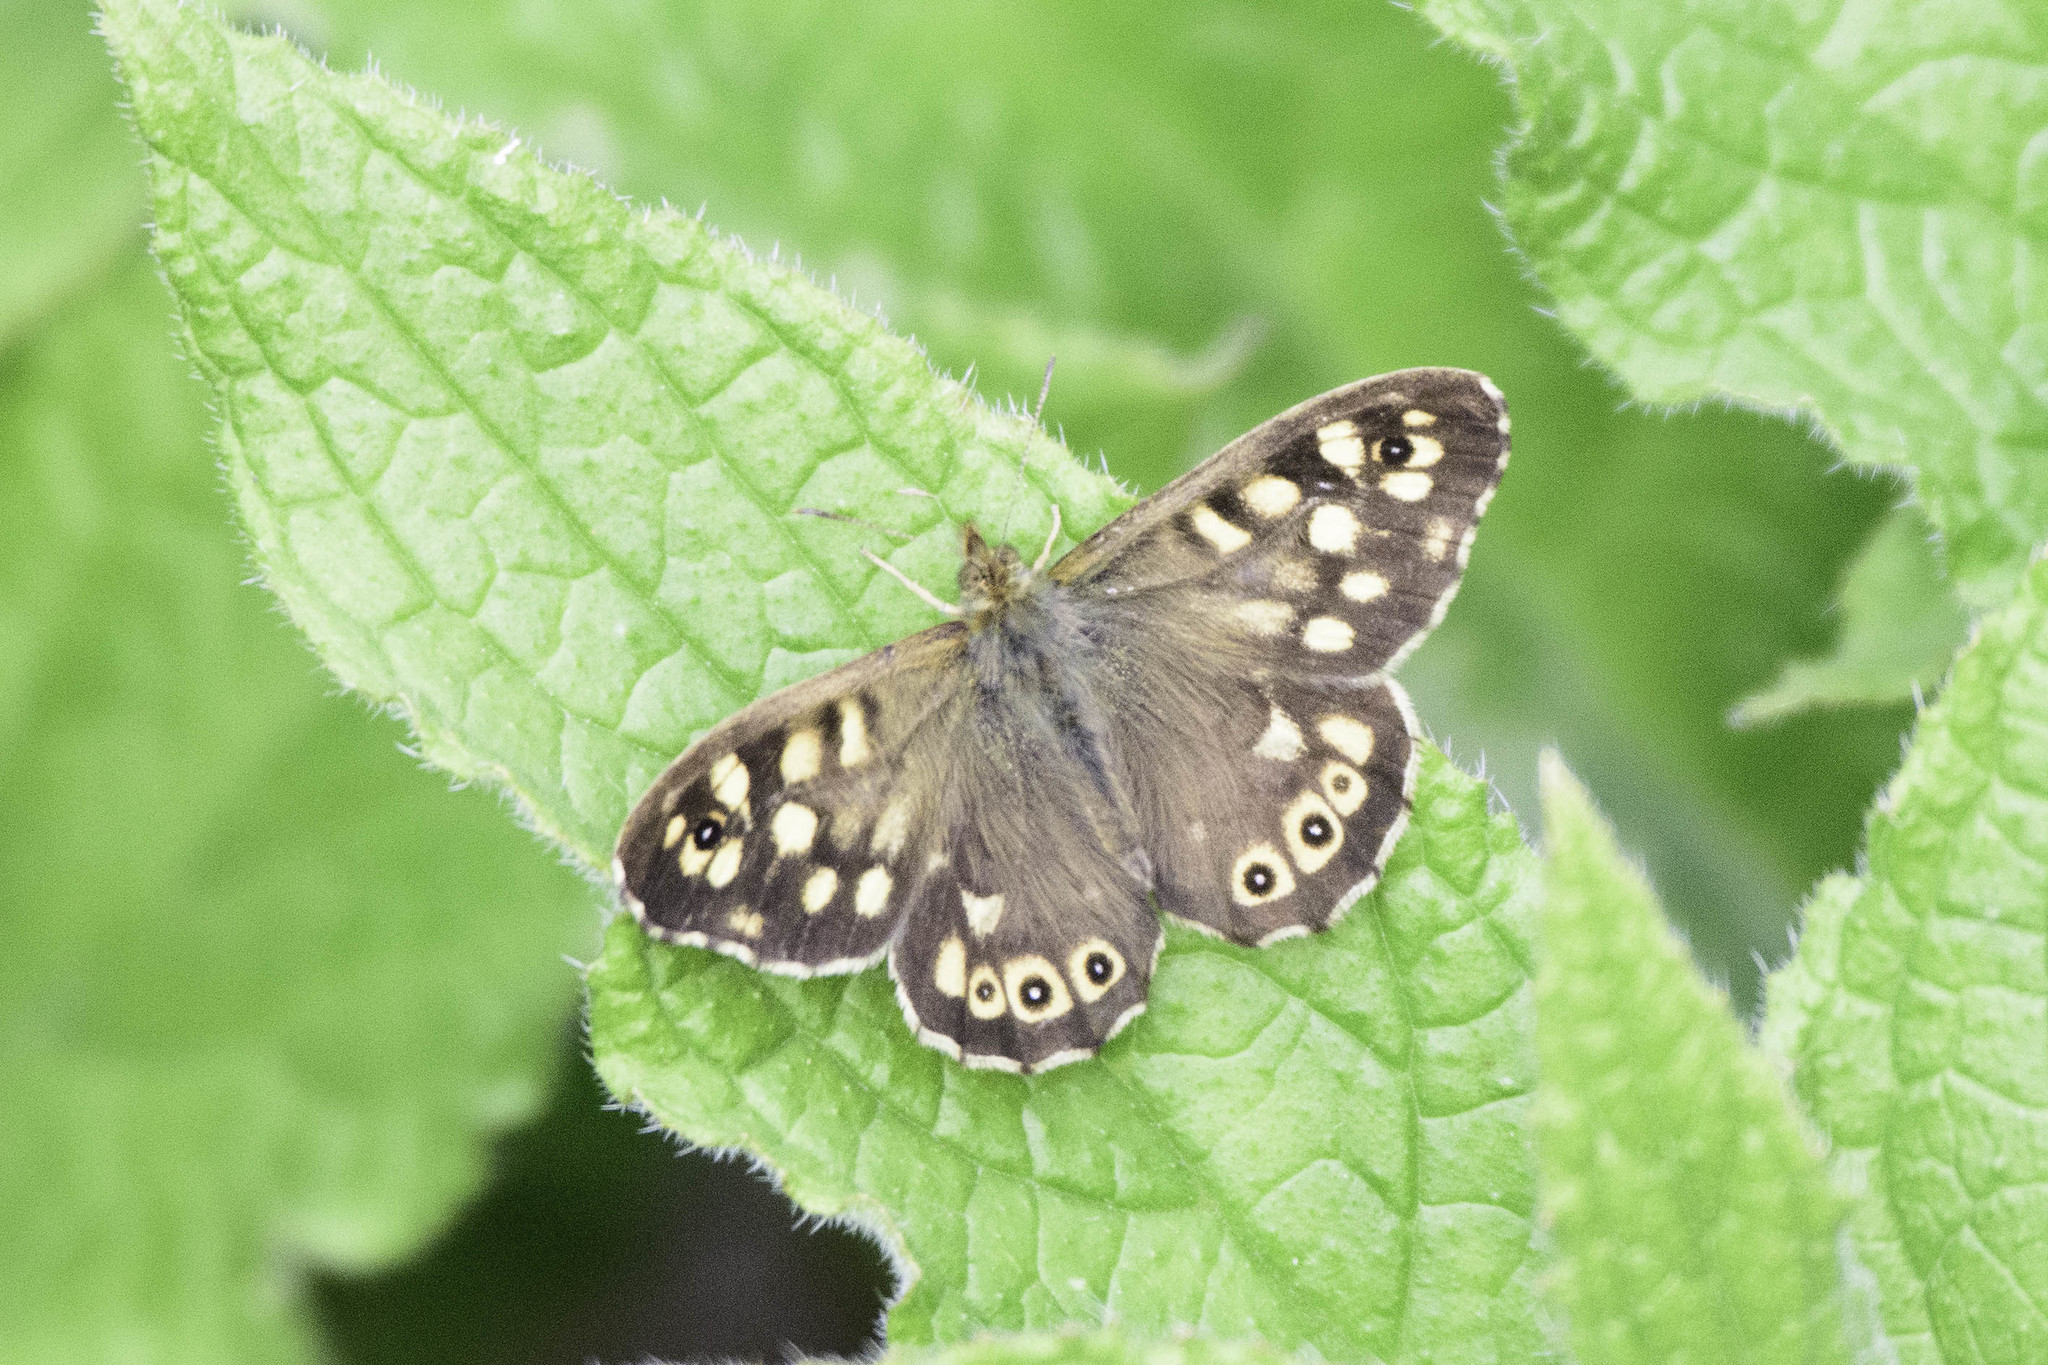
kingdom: Animalia
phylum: Arthropoda
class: Insecta
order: Lepidoptera
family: Nymphalidae
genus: Pararge
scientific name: Pararge aegeria
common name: Speckled wood
